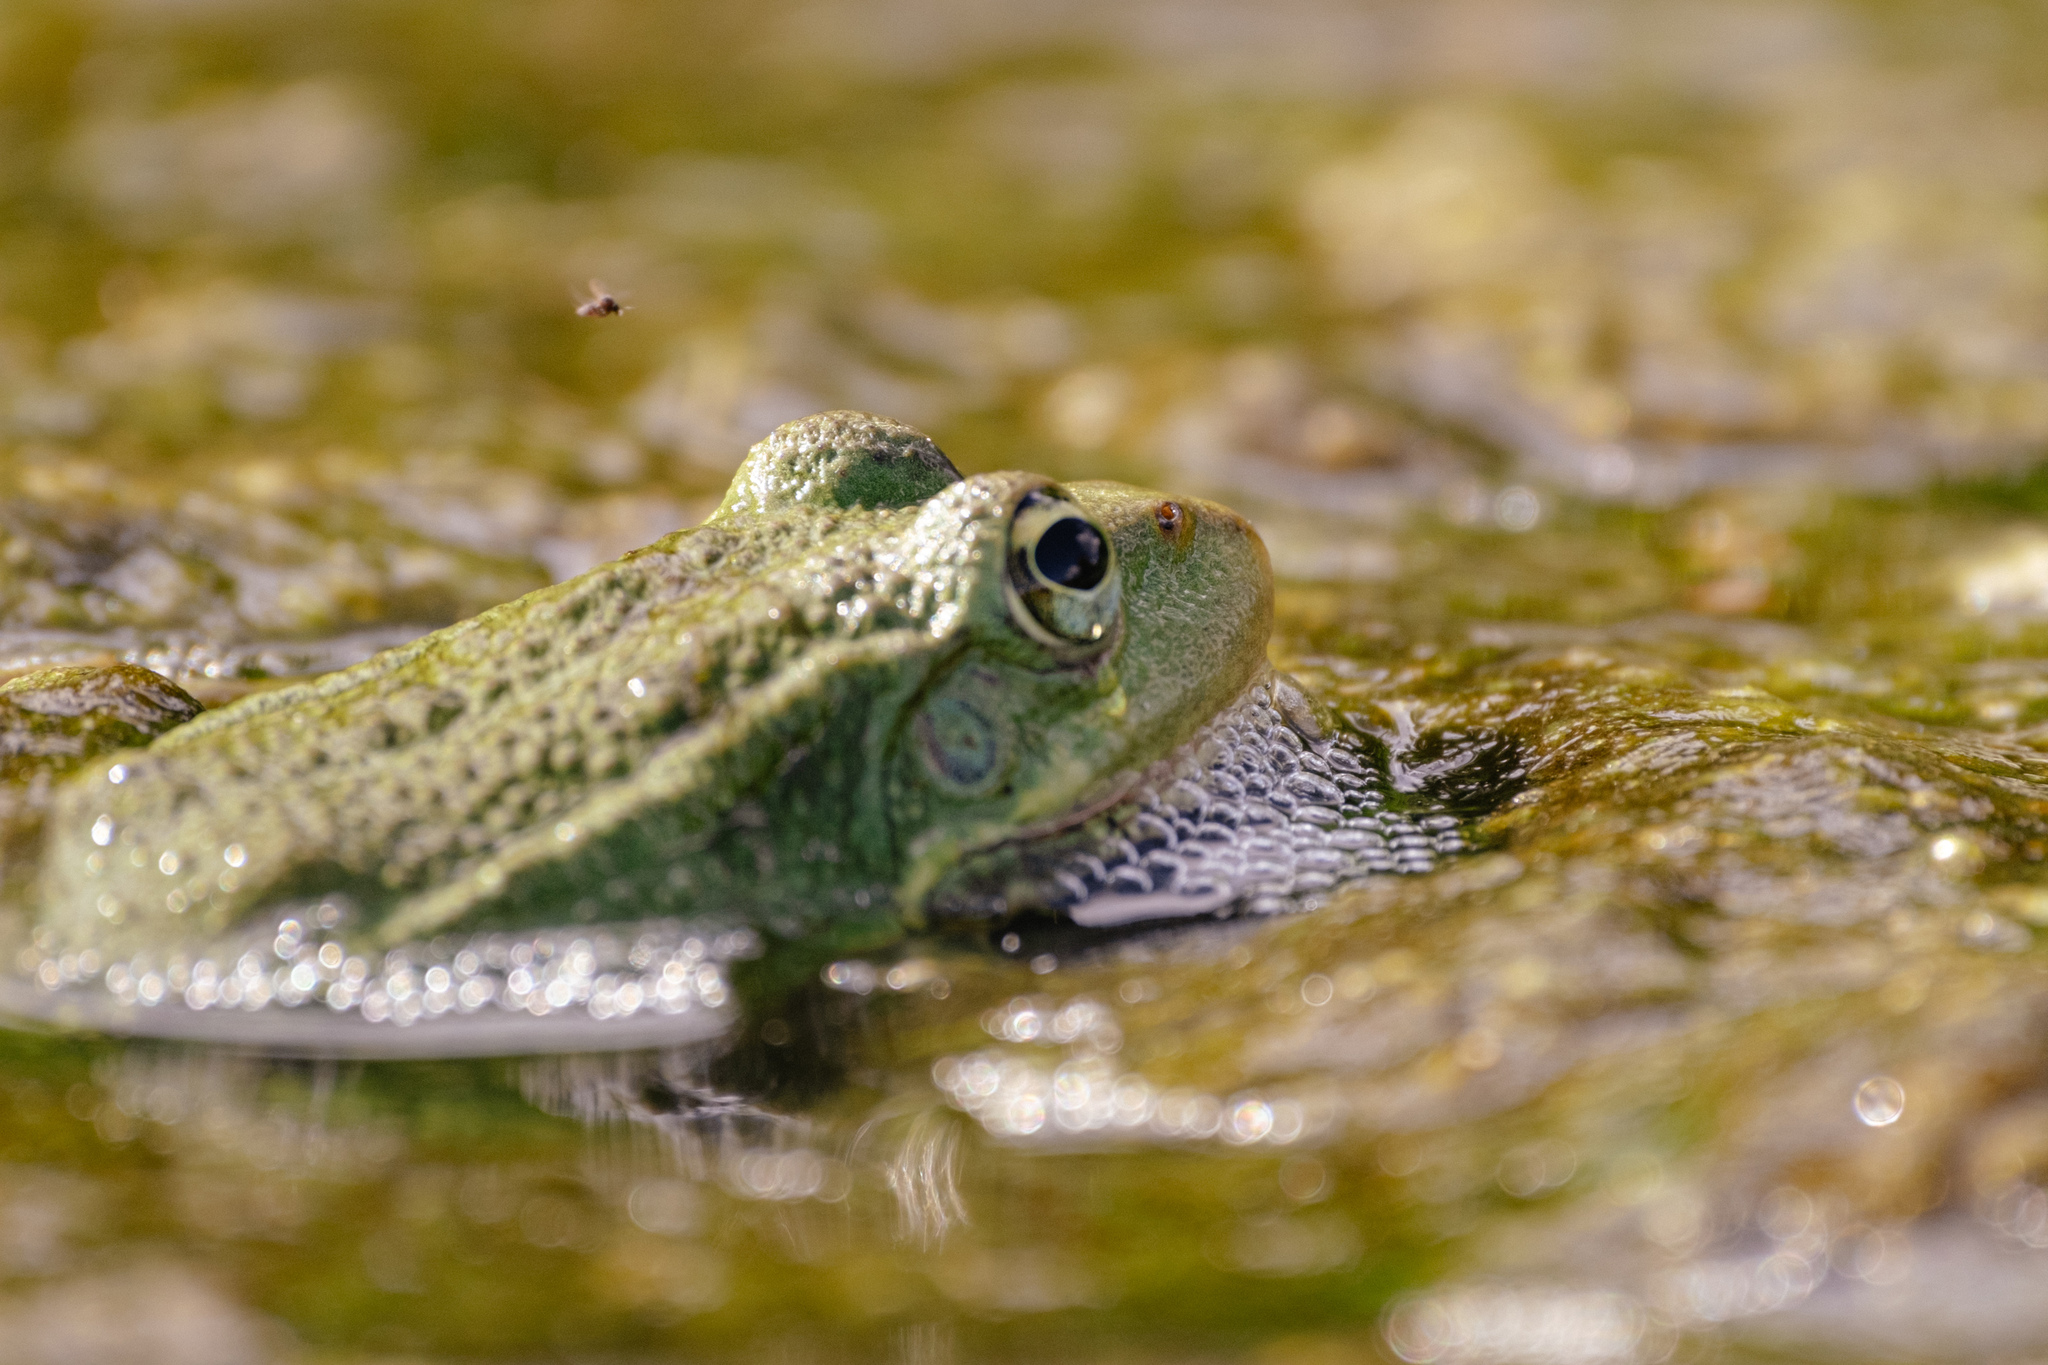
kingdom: Animalia
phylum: Chordata
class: Amphibia
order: Anura
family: Ranidae
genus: Pelophylax
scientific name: Pelophylax perezi
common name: Perez's frog
